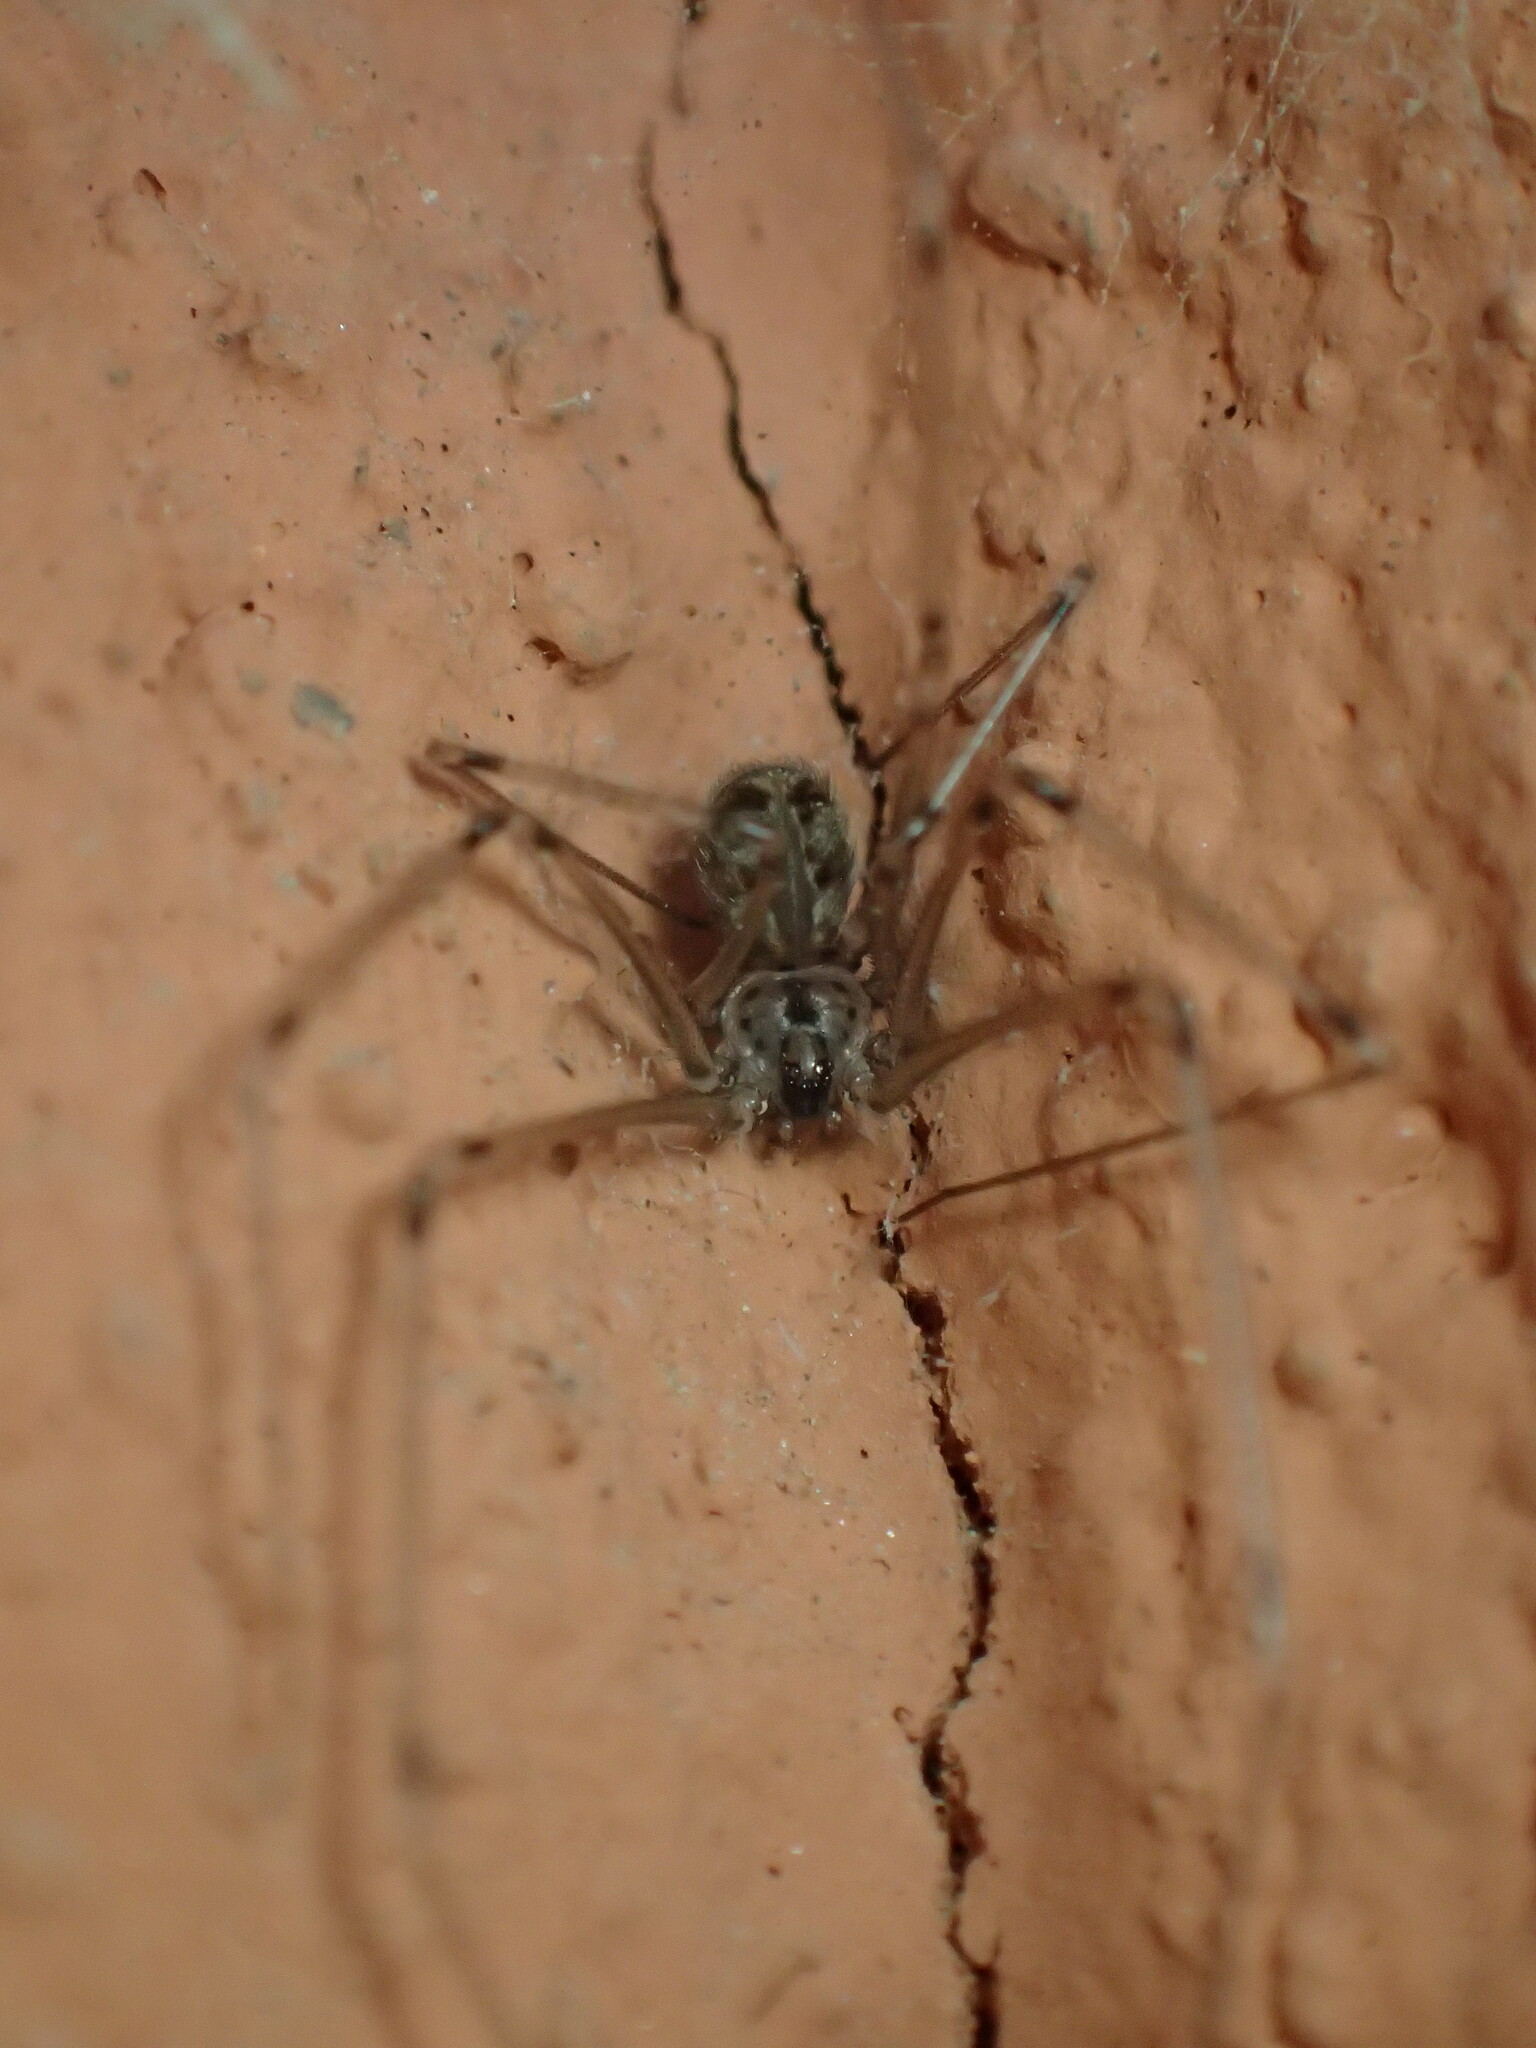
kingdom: Animalia
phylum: Arthropoda
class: Arachnida
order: Araneae
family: Pholcidae
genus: Physocyclus
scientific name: Physocyclus globosus
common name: Cellar spiders
